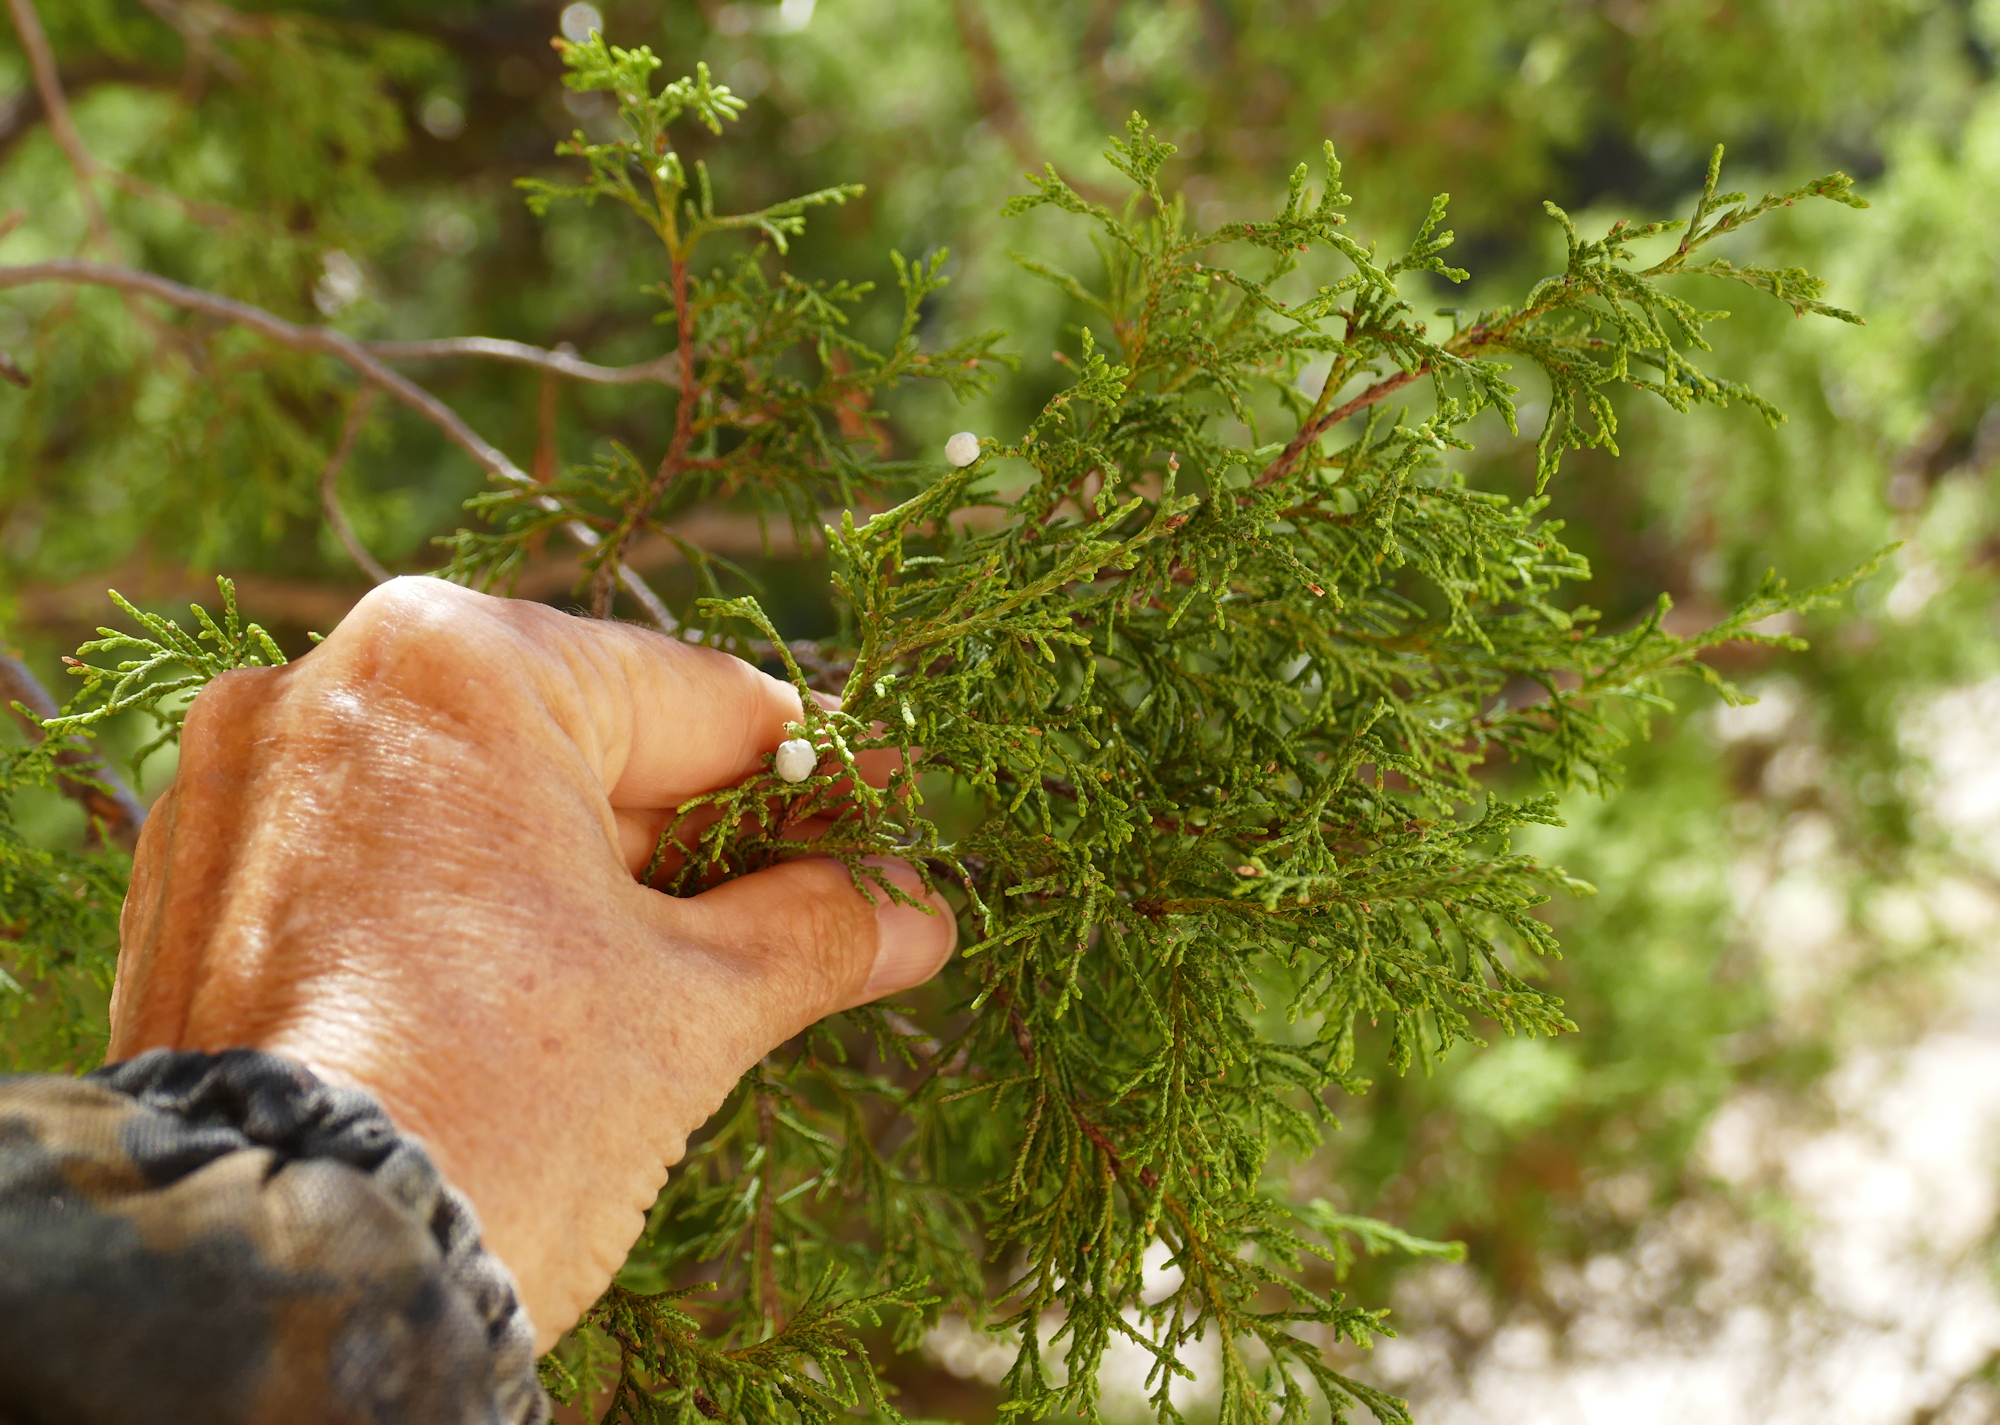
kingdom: Plantae
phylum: Tracheophyta
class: Pinopsida
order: Pinales
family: Cupressaceae
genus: Juniperus
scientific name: Juniperus scopulorum
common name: Rocky mountain juniper
